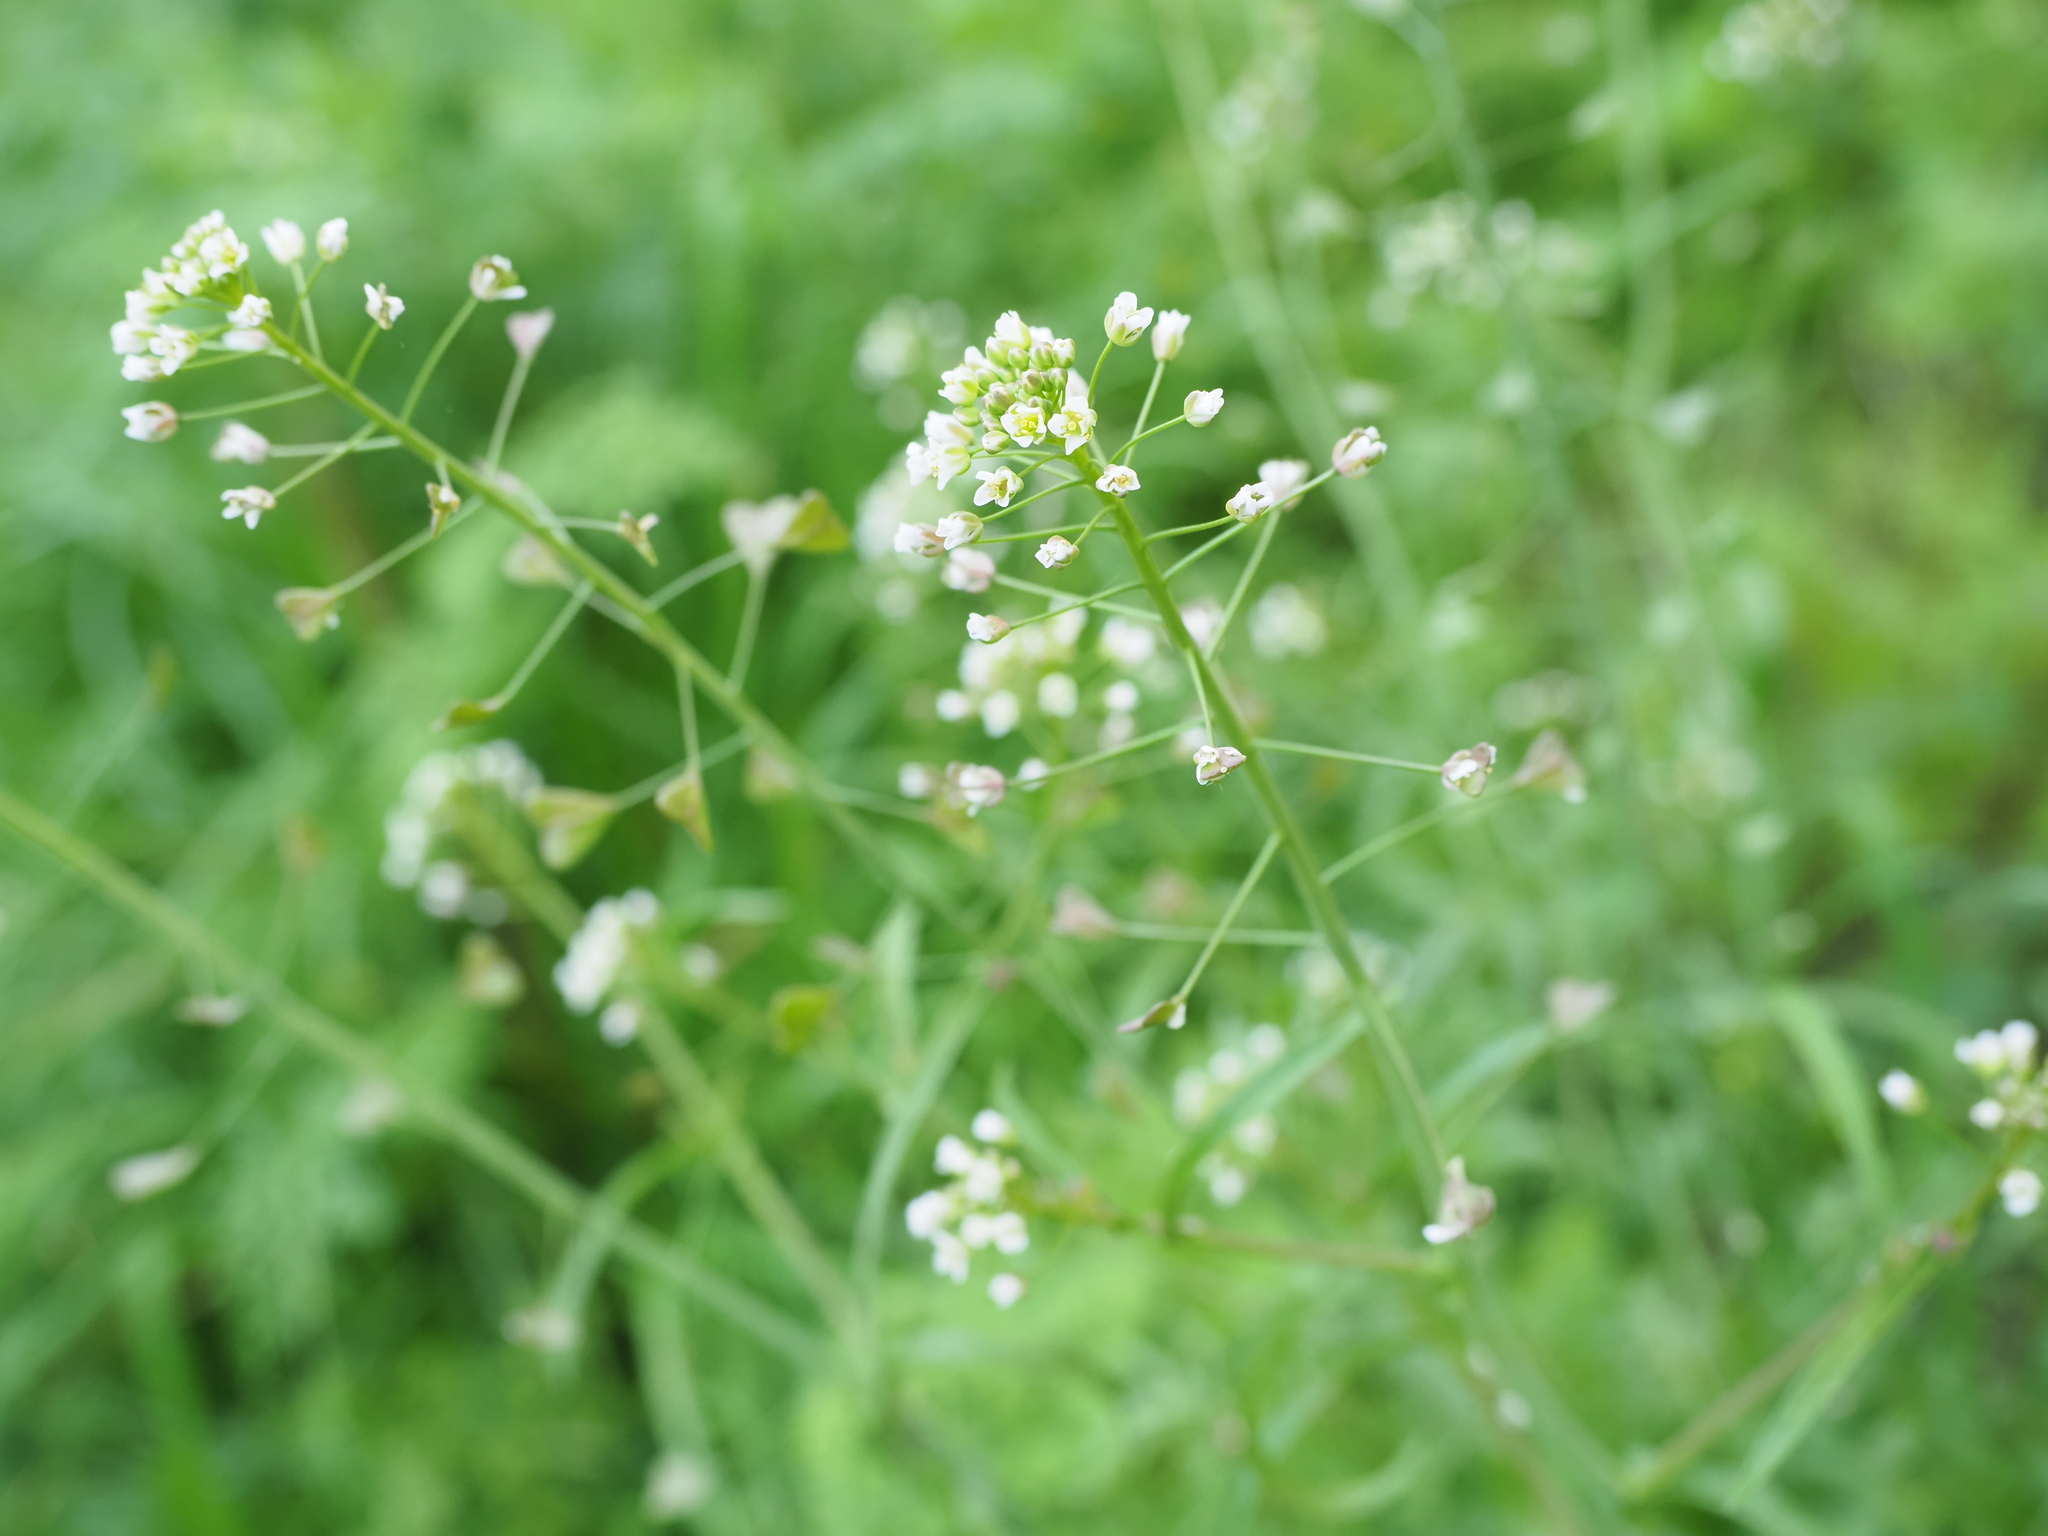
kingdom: Plantae
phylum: Tracheophyta
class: Magnoliopsida
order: Brassicales
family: Brassicaceae
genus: Capsella
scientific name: Capsella bursa-pastoris
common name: Shepherd's purse
